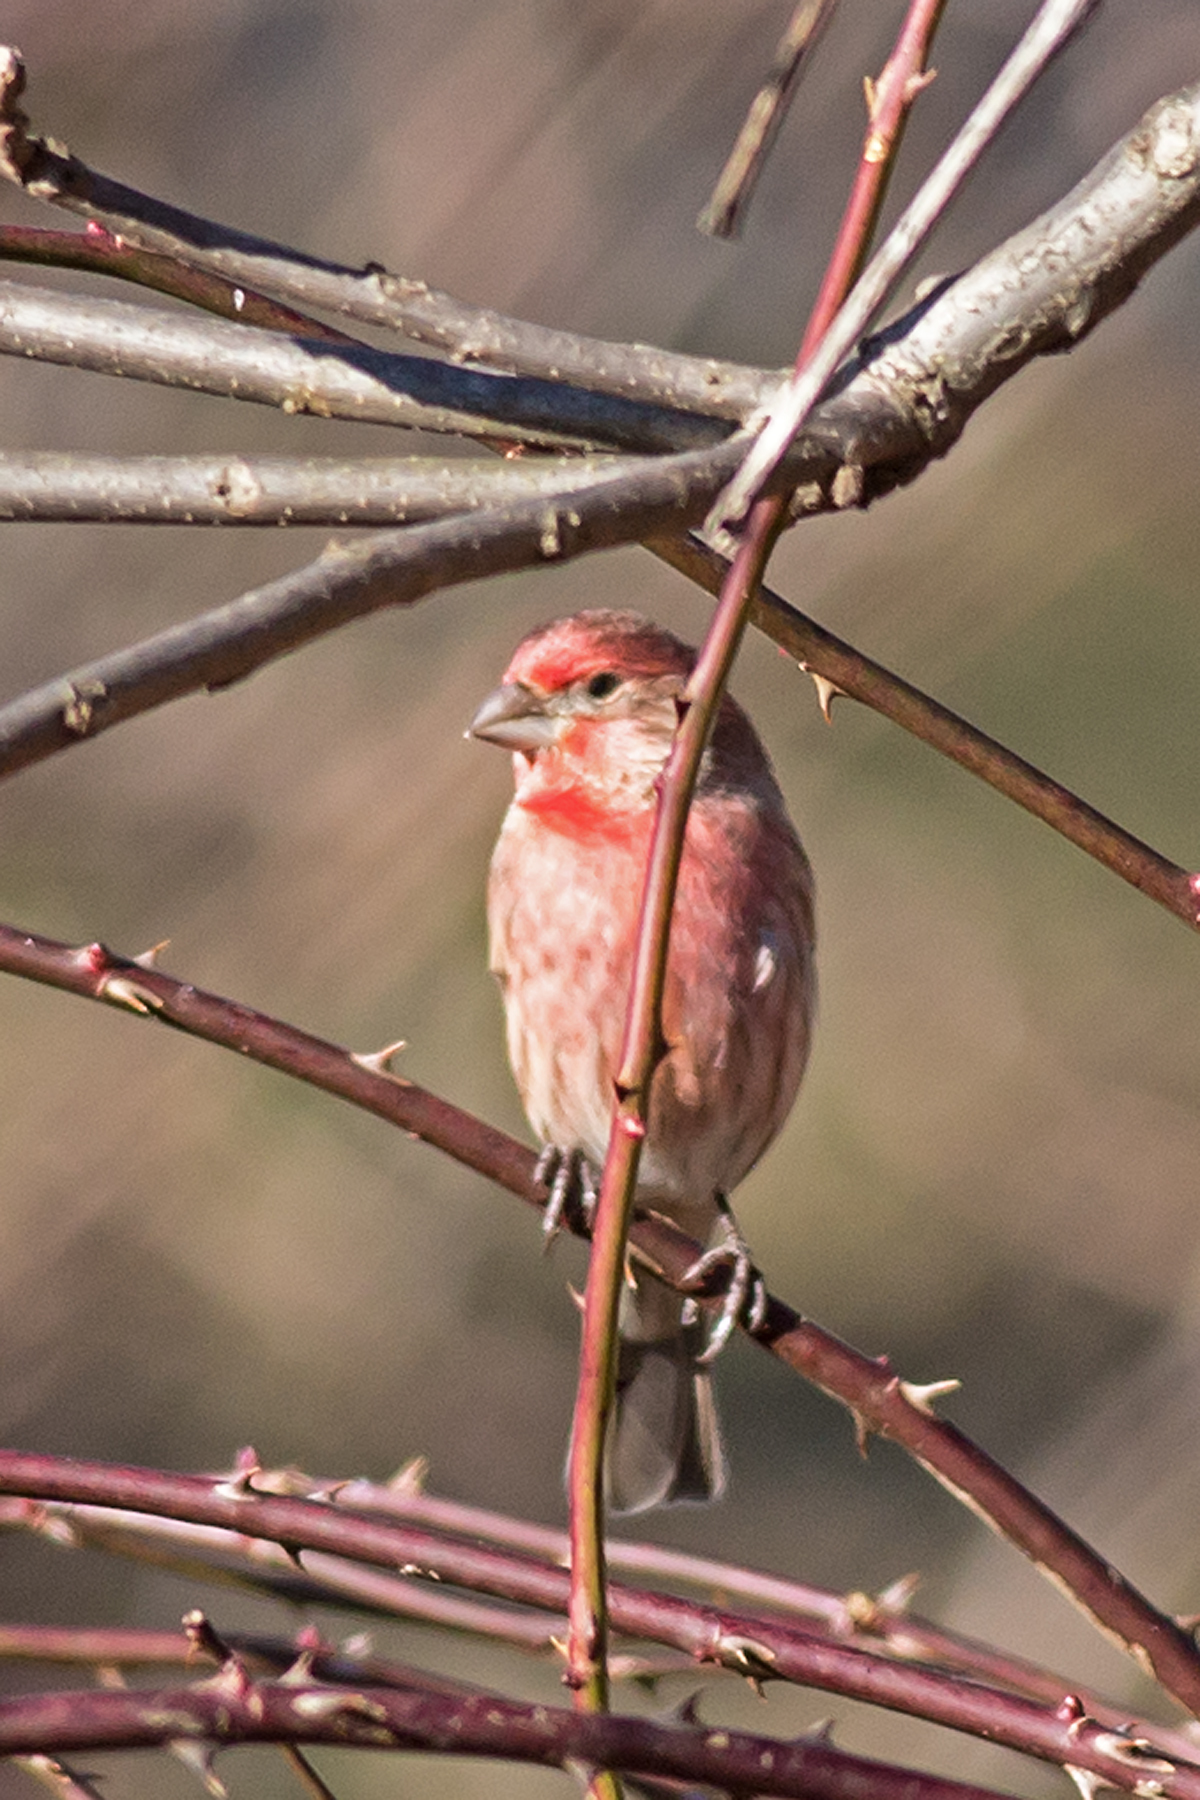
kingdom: Animalia
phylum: Chordata
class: Aves
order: Passeriformes
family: Fringillidae
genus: Haemorhous
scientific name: Haemorhous mexicanus
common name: House finch
